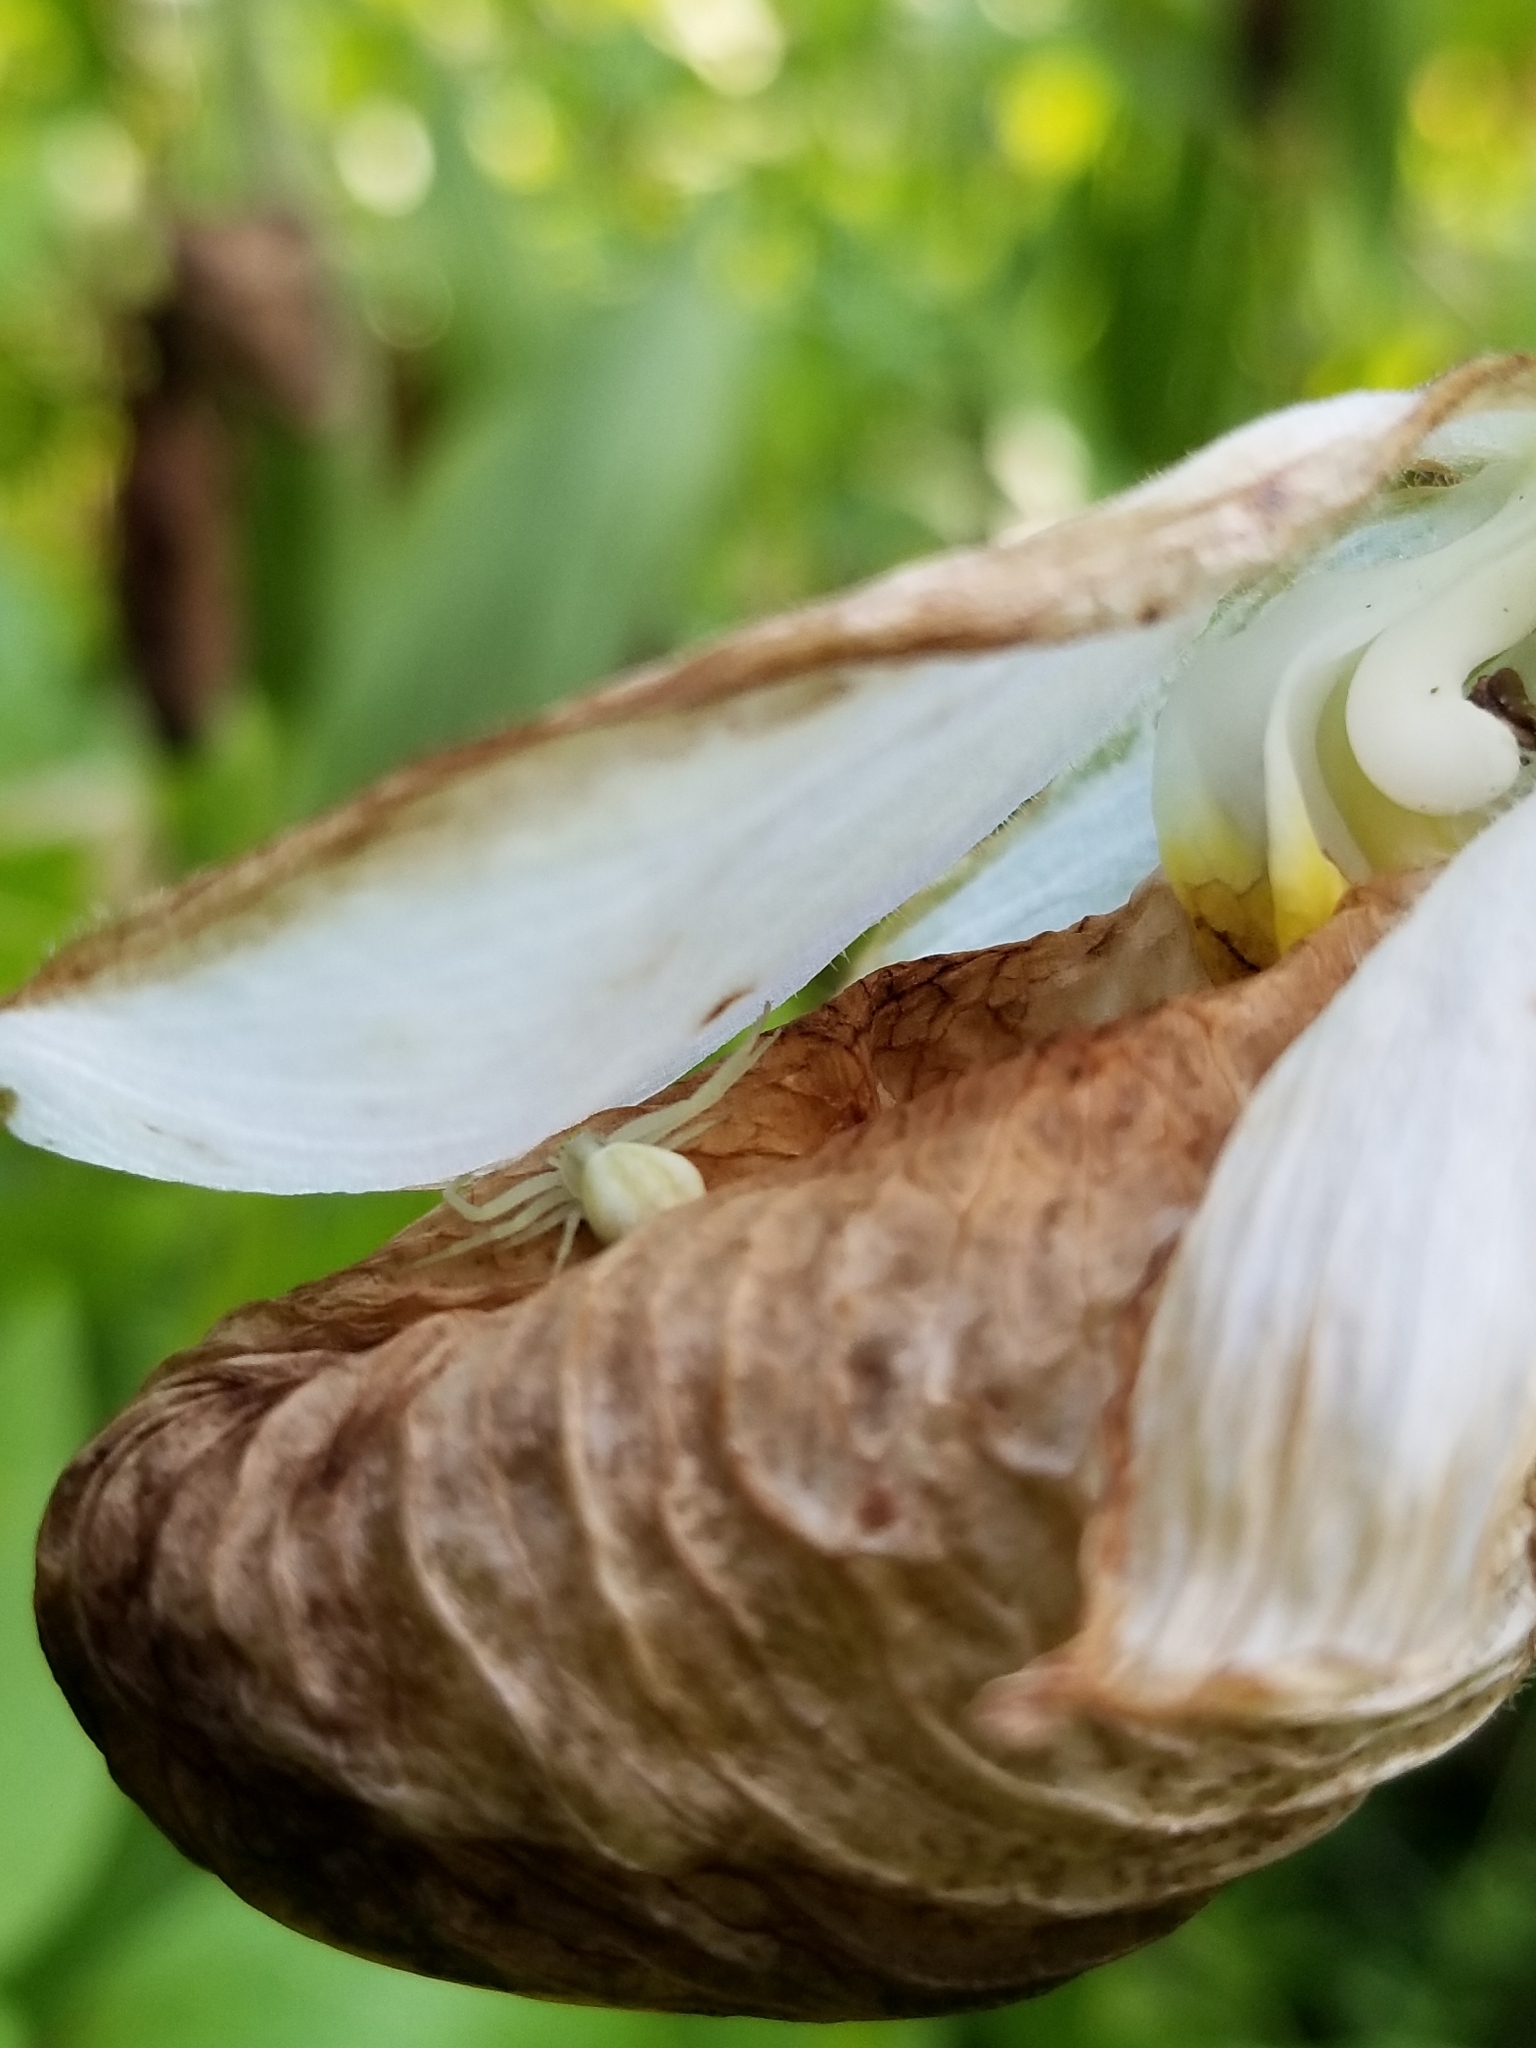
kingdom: Animalia
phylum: Arthropoda
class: Arachnida
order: Araneae
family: Thomisidae
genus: Misumena
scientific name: Misumena vatia
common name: Goldenrod crab spider
